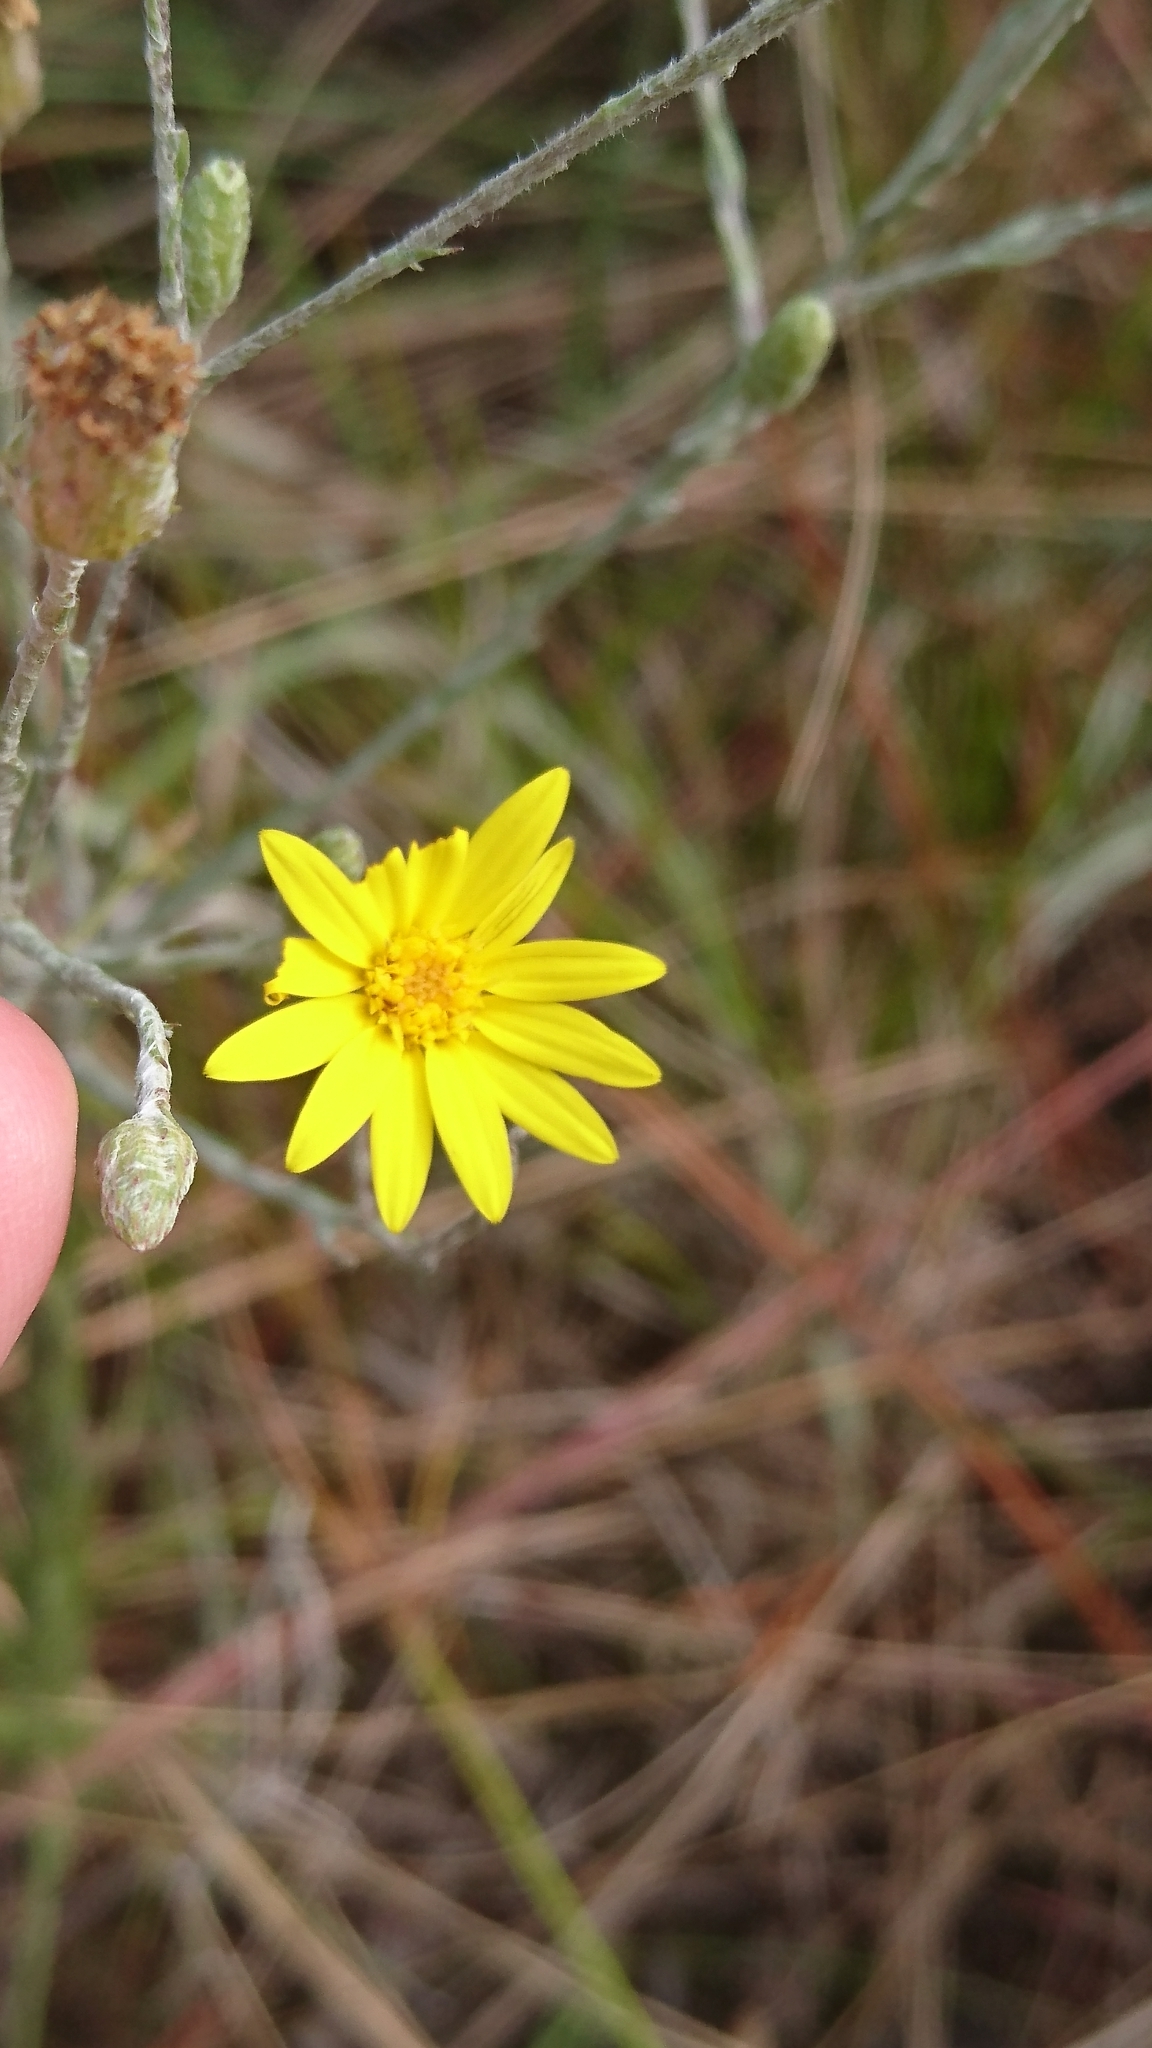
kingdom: Plantae
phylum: Tracheophyta
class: Magnoliopsida
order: Asterales
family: Asteraceae
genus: Pityopsis
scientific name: Pityopsis tracyi
